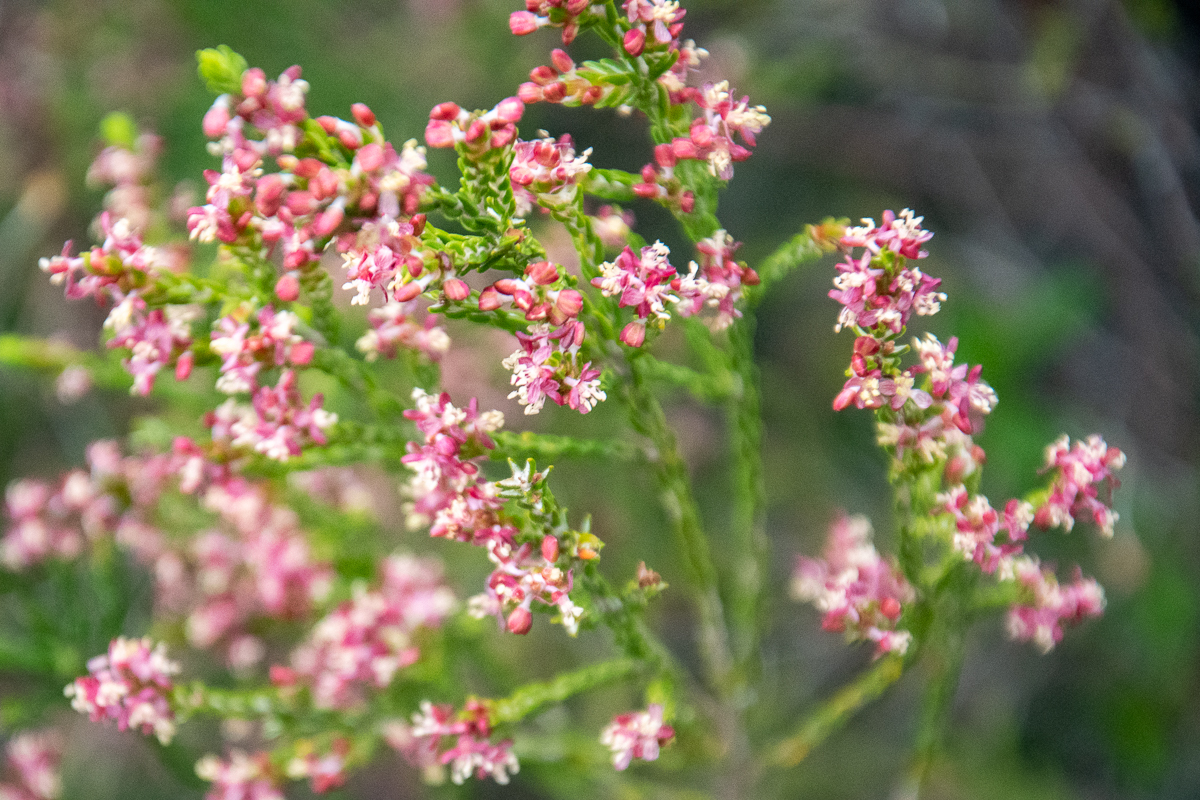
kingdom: Plantae
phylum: Tracheophyta
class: Magnoliopsida
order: Malvales
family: Thymelaeaceae
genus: Passerina
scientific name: Passerina corymbosa
